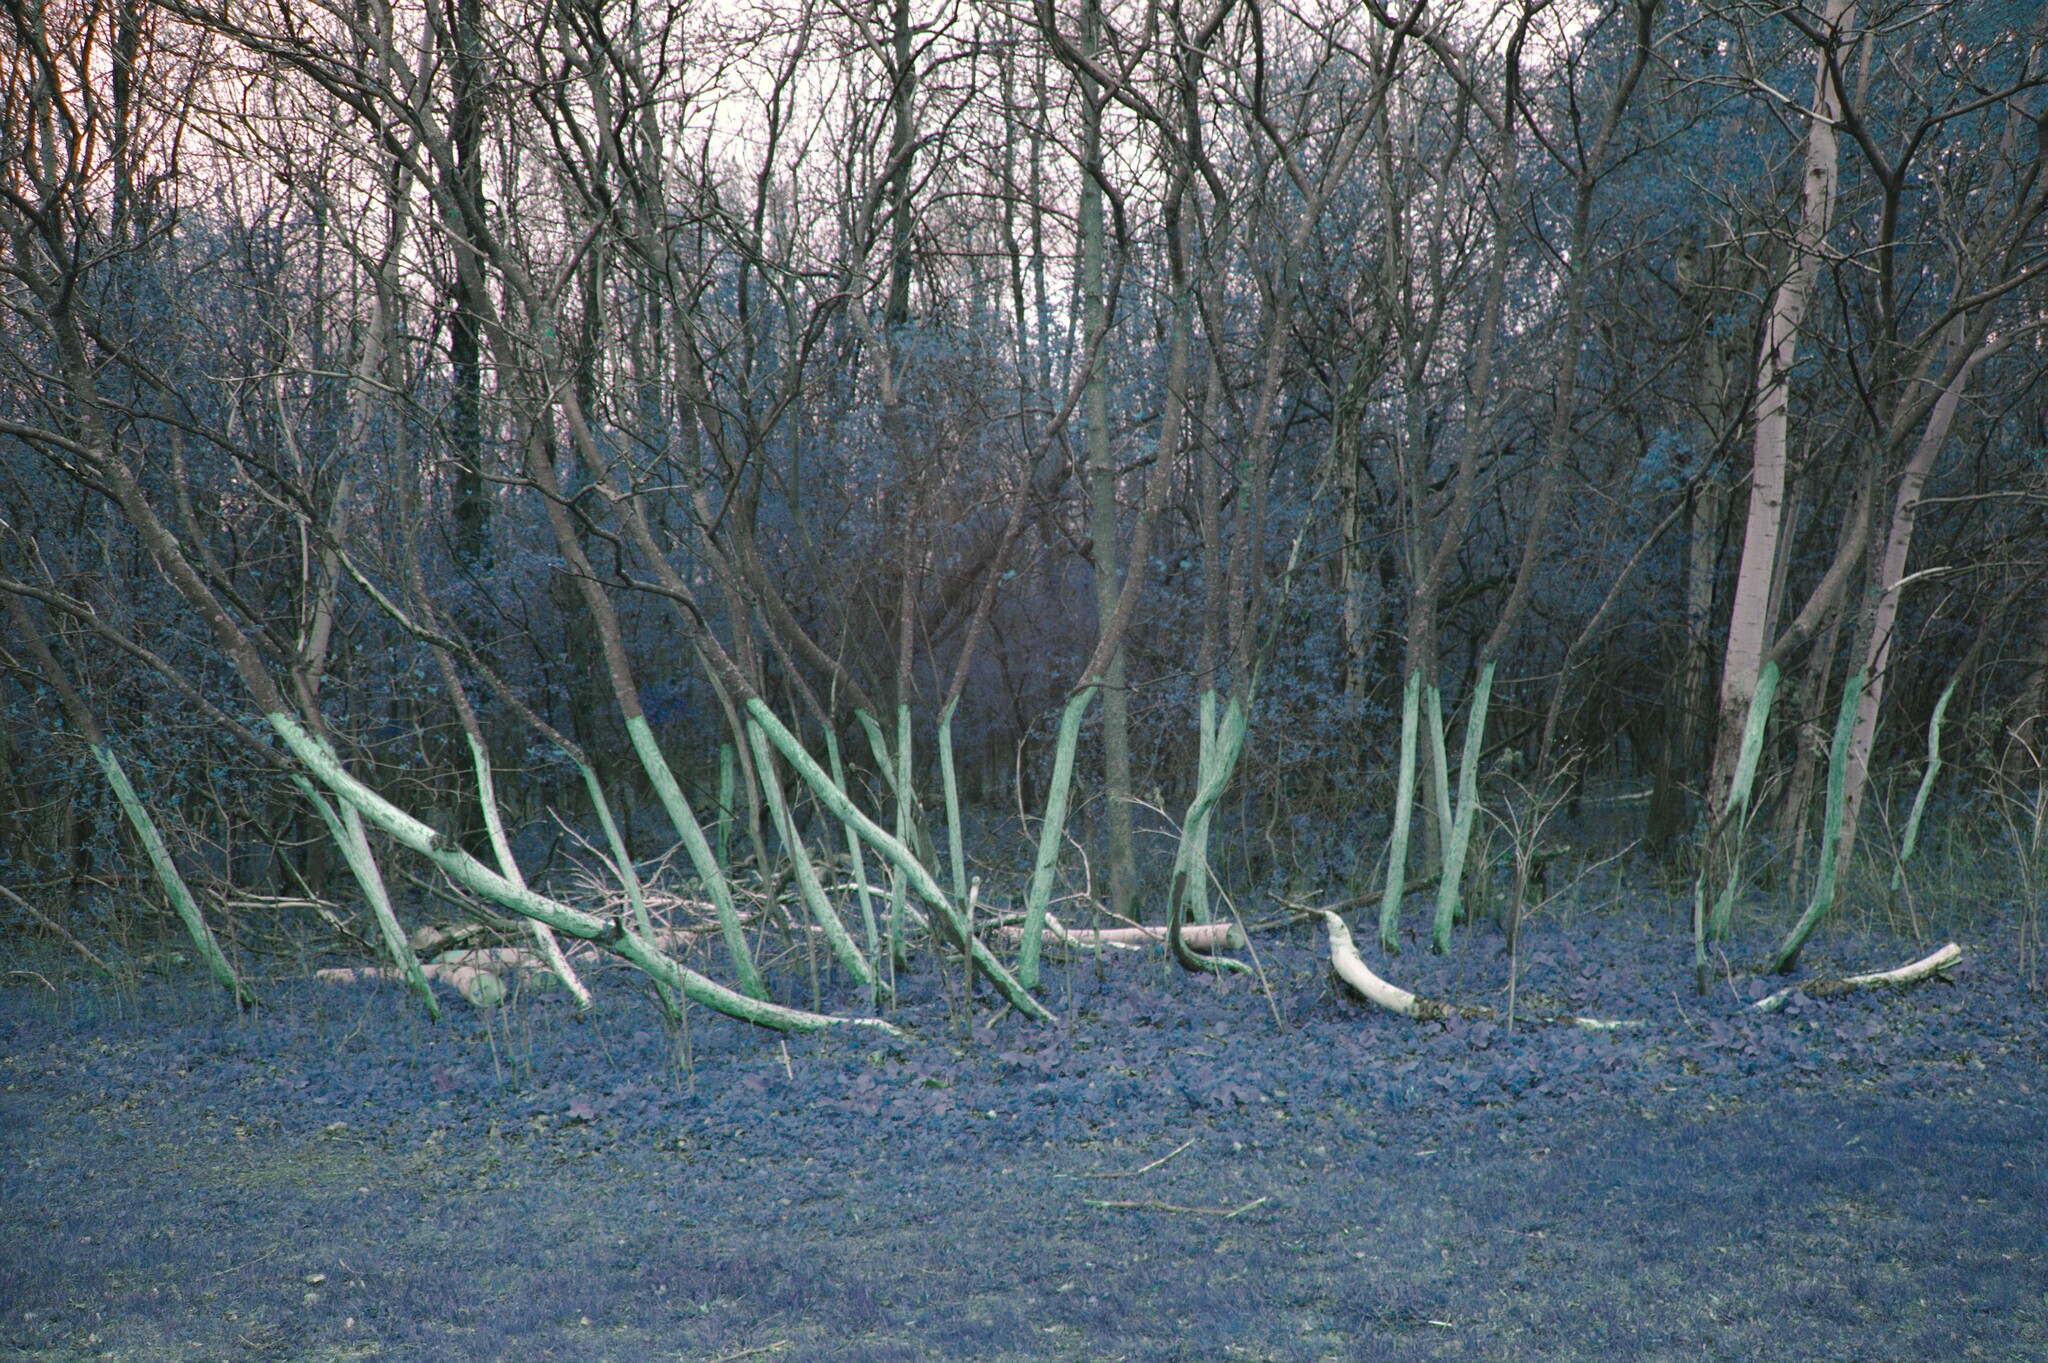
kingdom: Plantae
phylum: Tracheophyta
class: Magnoliopsida
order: Sapindales
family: Anacardiaceae
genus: Rhus
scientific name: Rhus typhina
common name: Staghorn sumac
